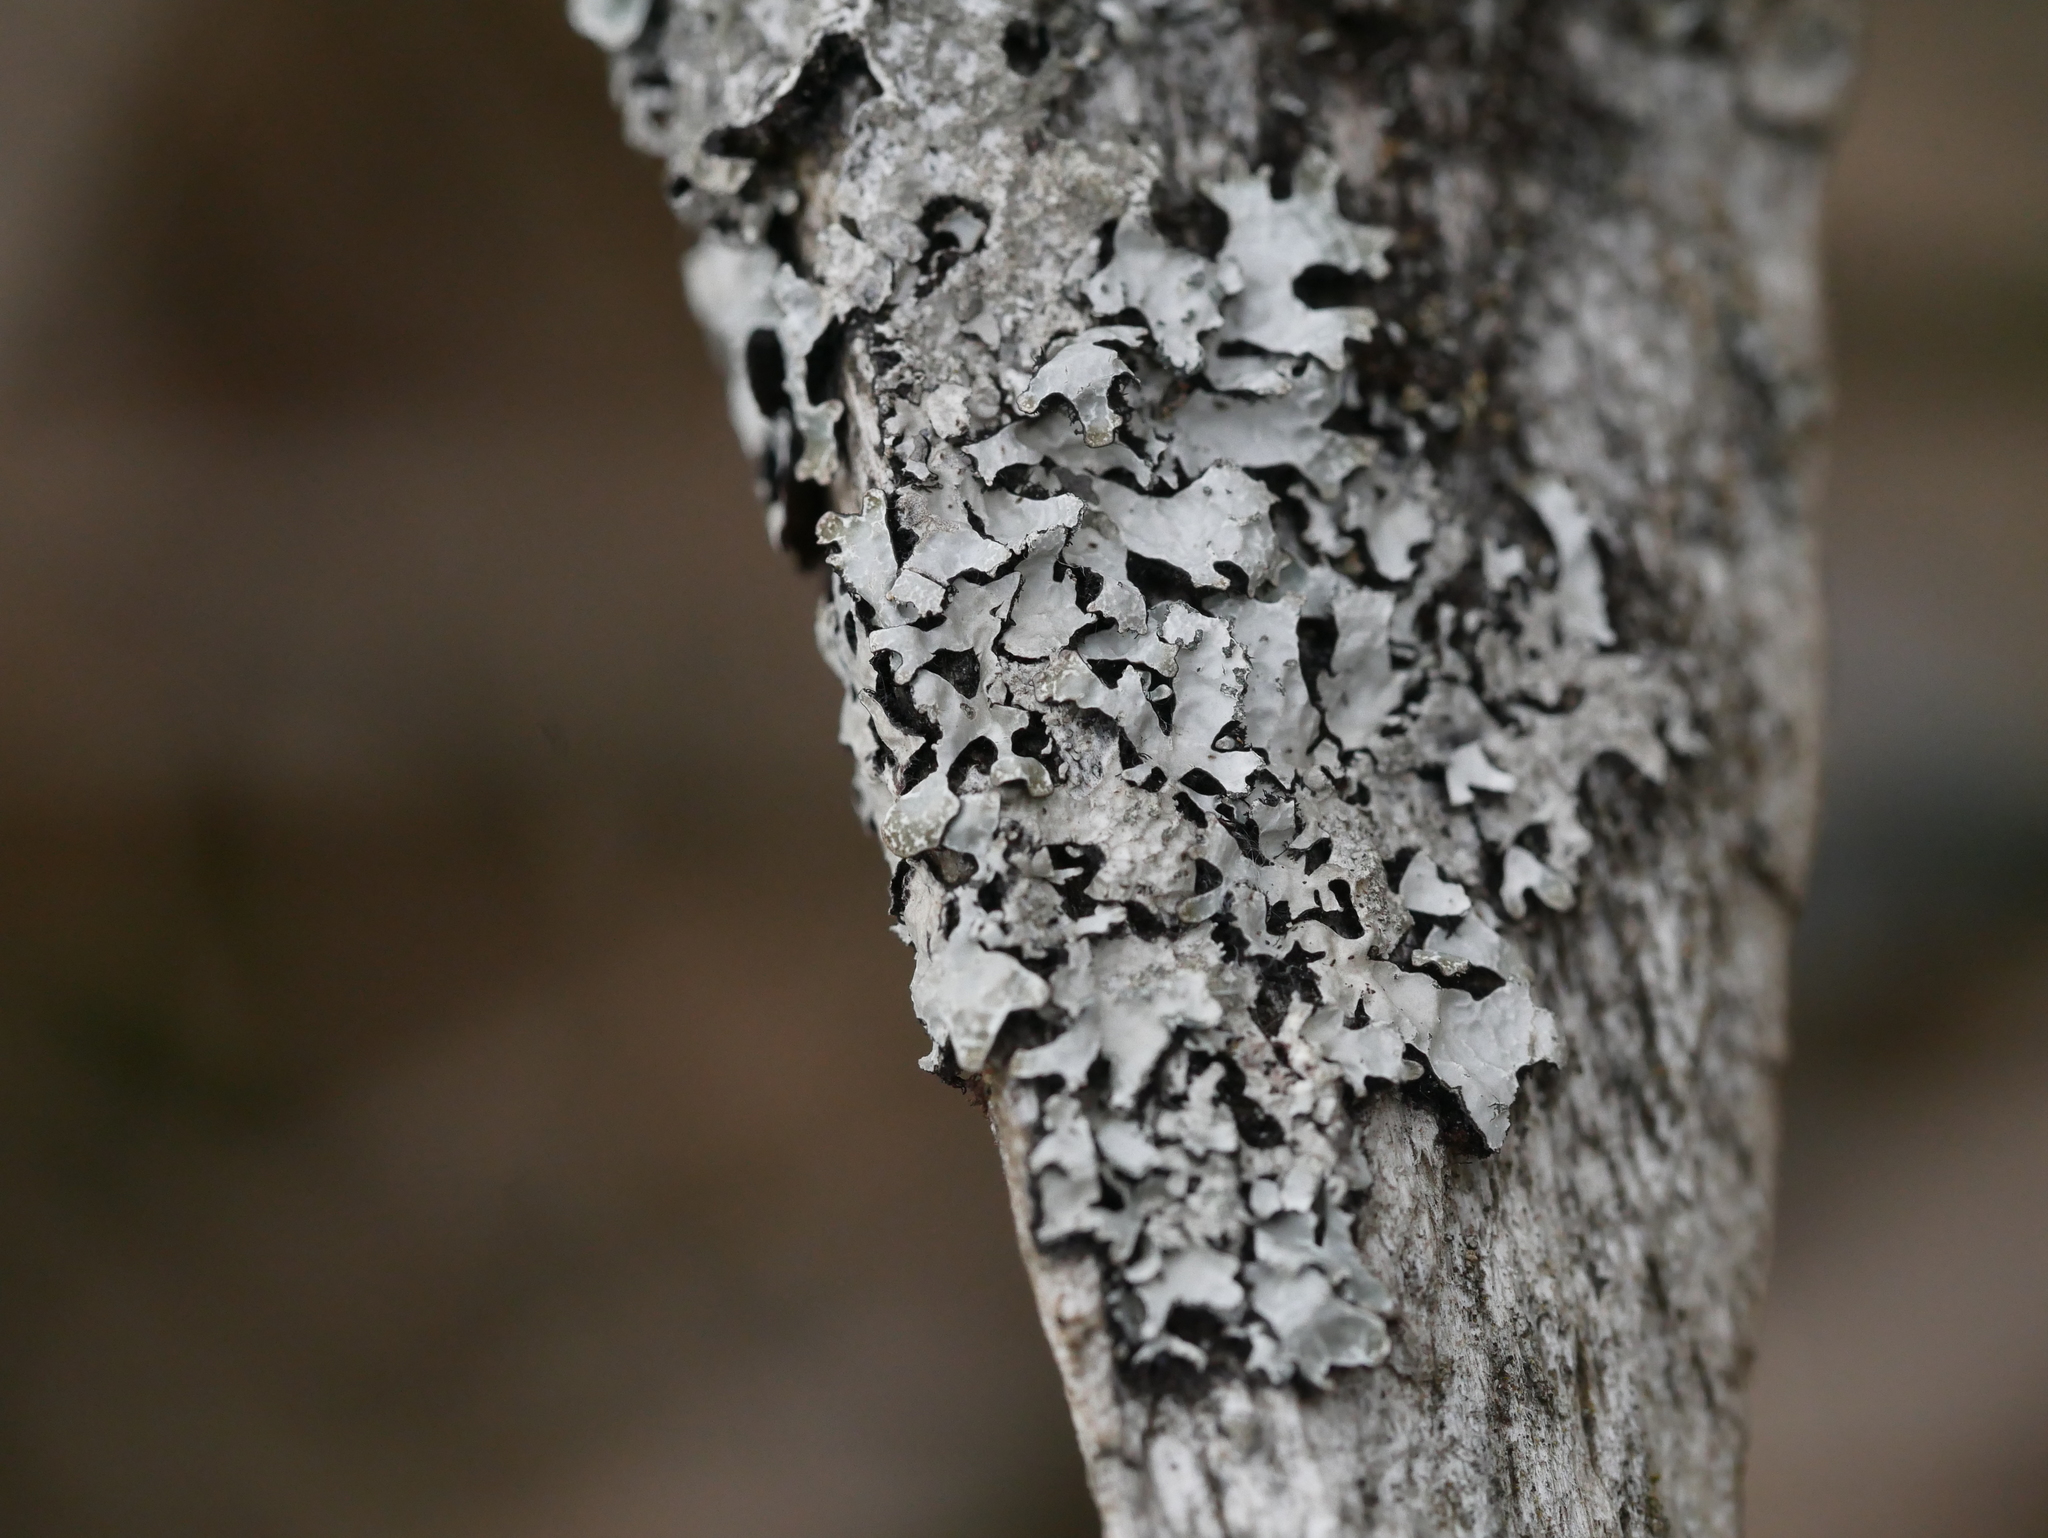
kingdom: Fungi
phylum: Ascomycota
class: Lecanoromycetes
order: Lecanorales
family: Parmeliaceae
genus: Parmelia
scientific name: Parmelia sulcata
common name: Netted shield lichen
